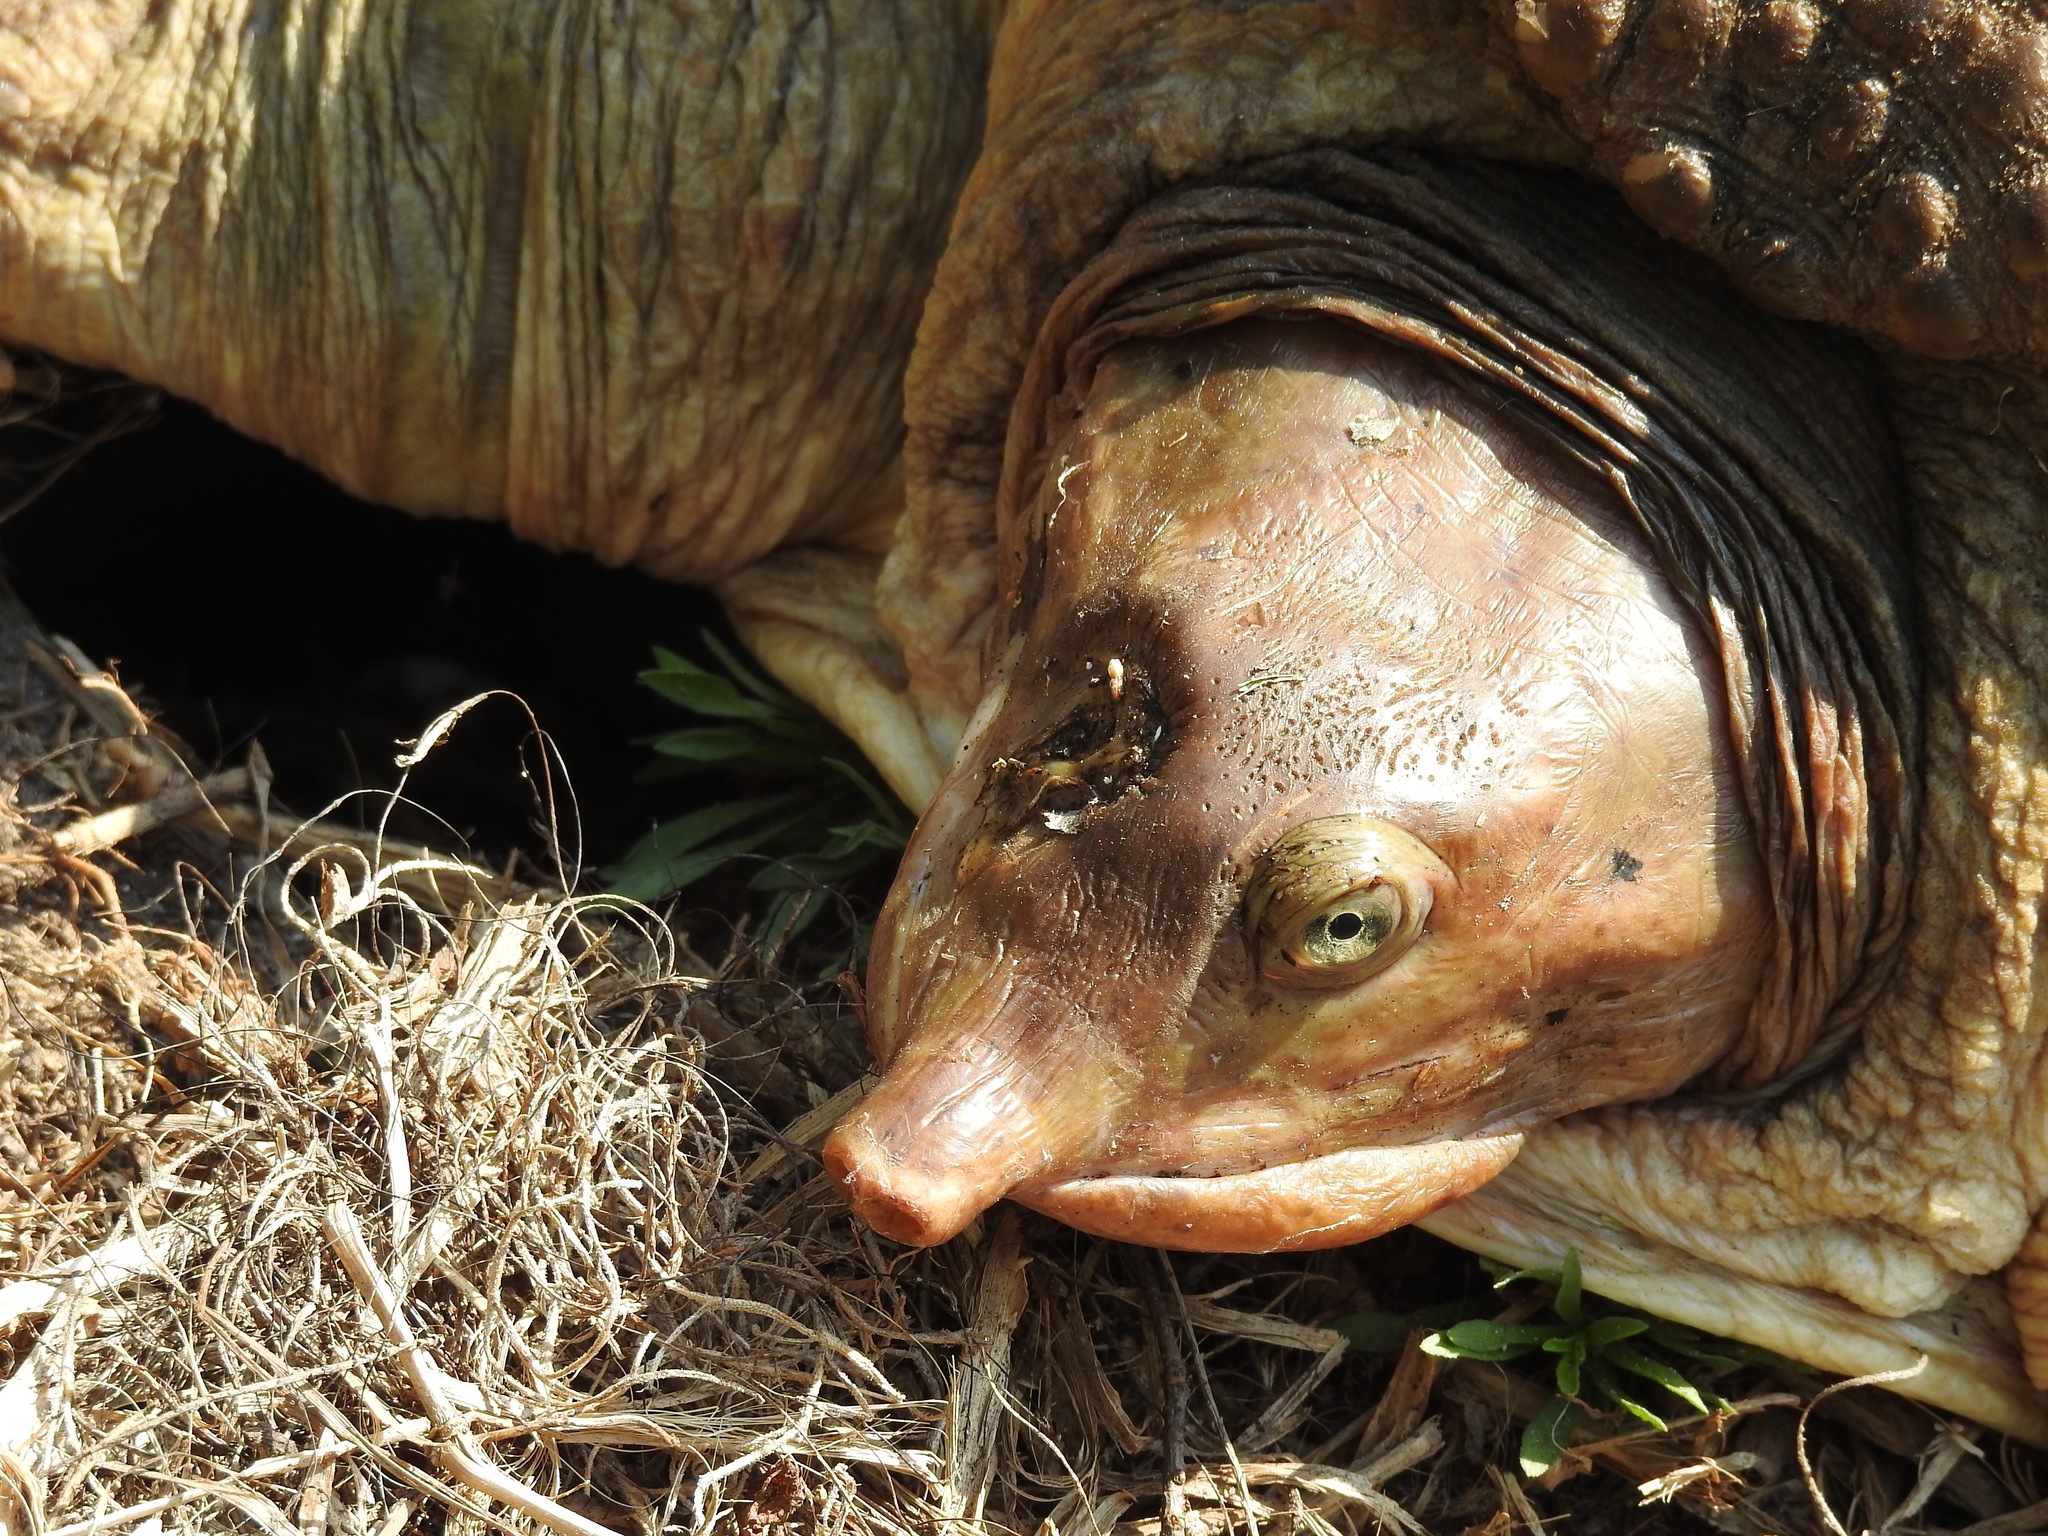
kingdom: Animalia
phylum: Chordata
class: Testudines
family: Trionychidae
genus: Apalone
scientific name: Apalone ferox
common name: Florida softshell turtle
